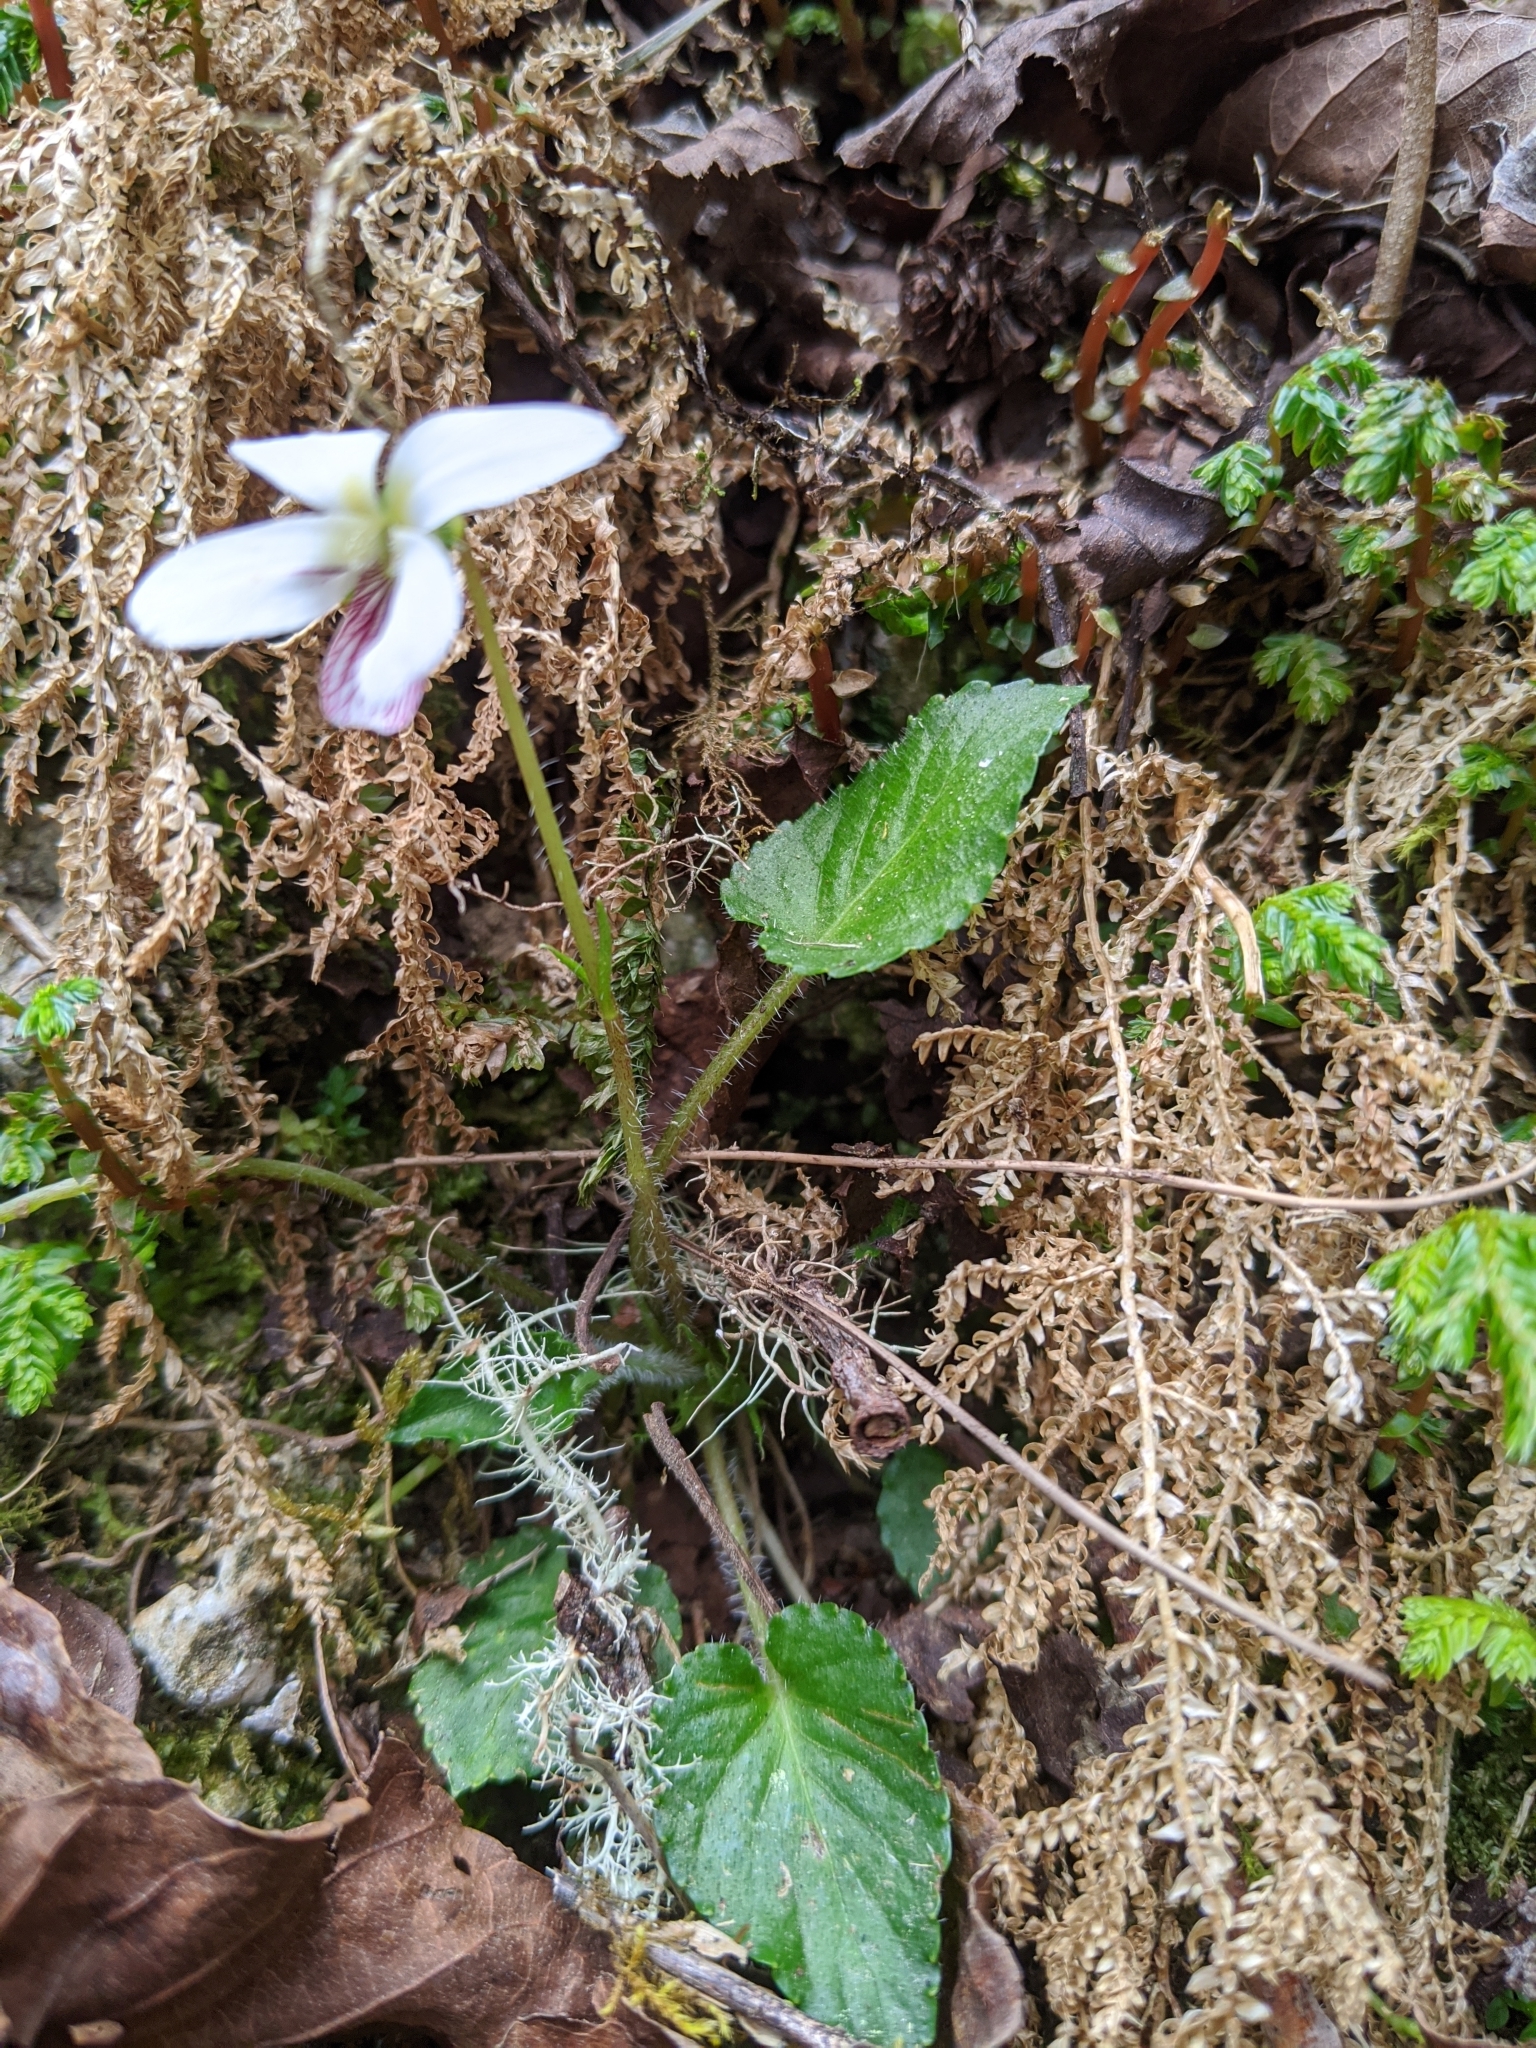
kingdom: Plantae
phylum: Tracheophyta
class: Magnoliopsida
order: Malpighiales
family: Violaceae
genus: Viola
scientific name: Viola adenothrix
